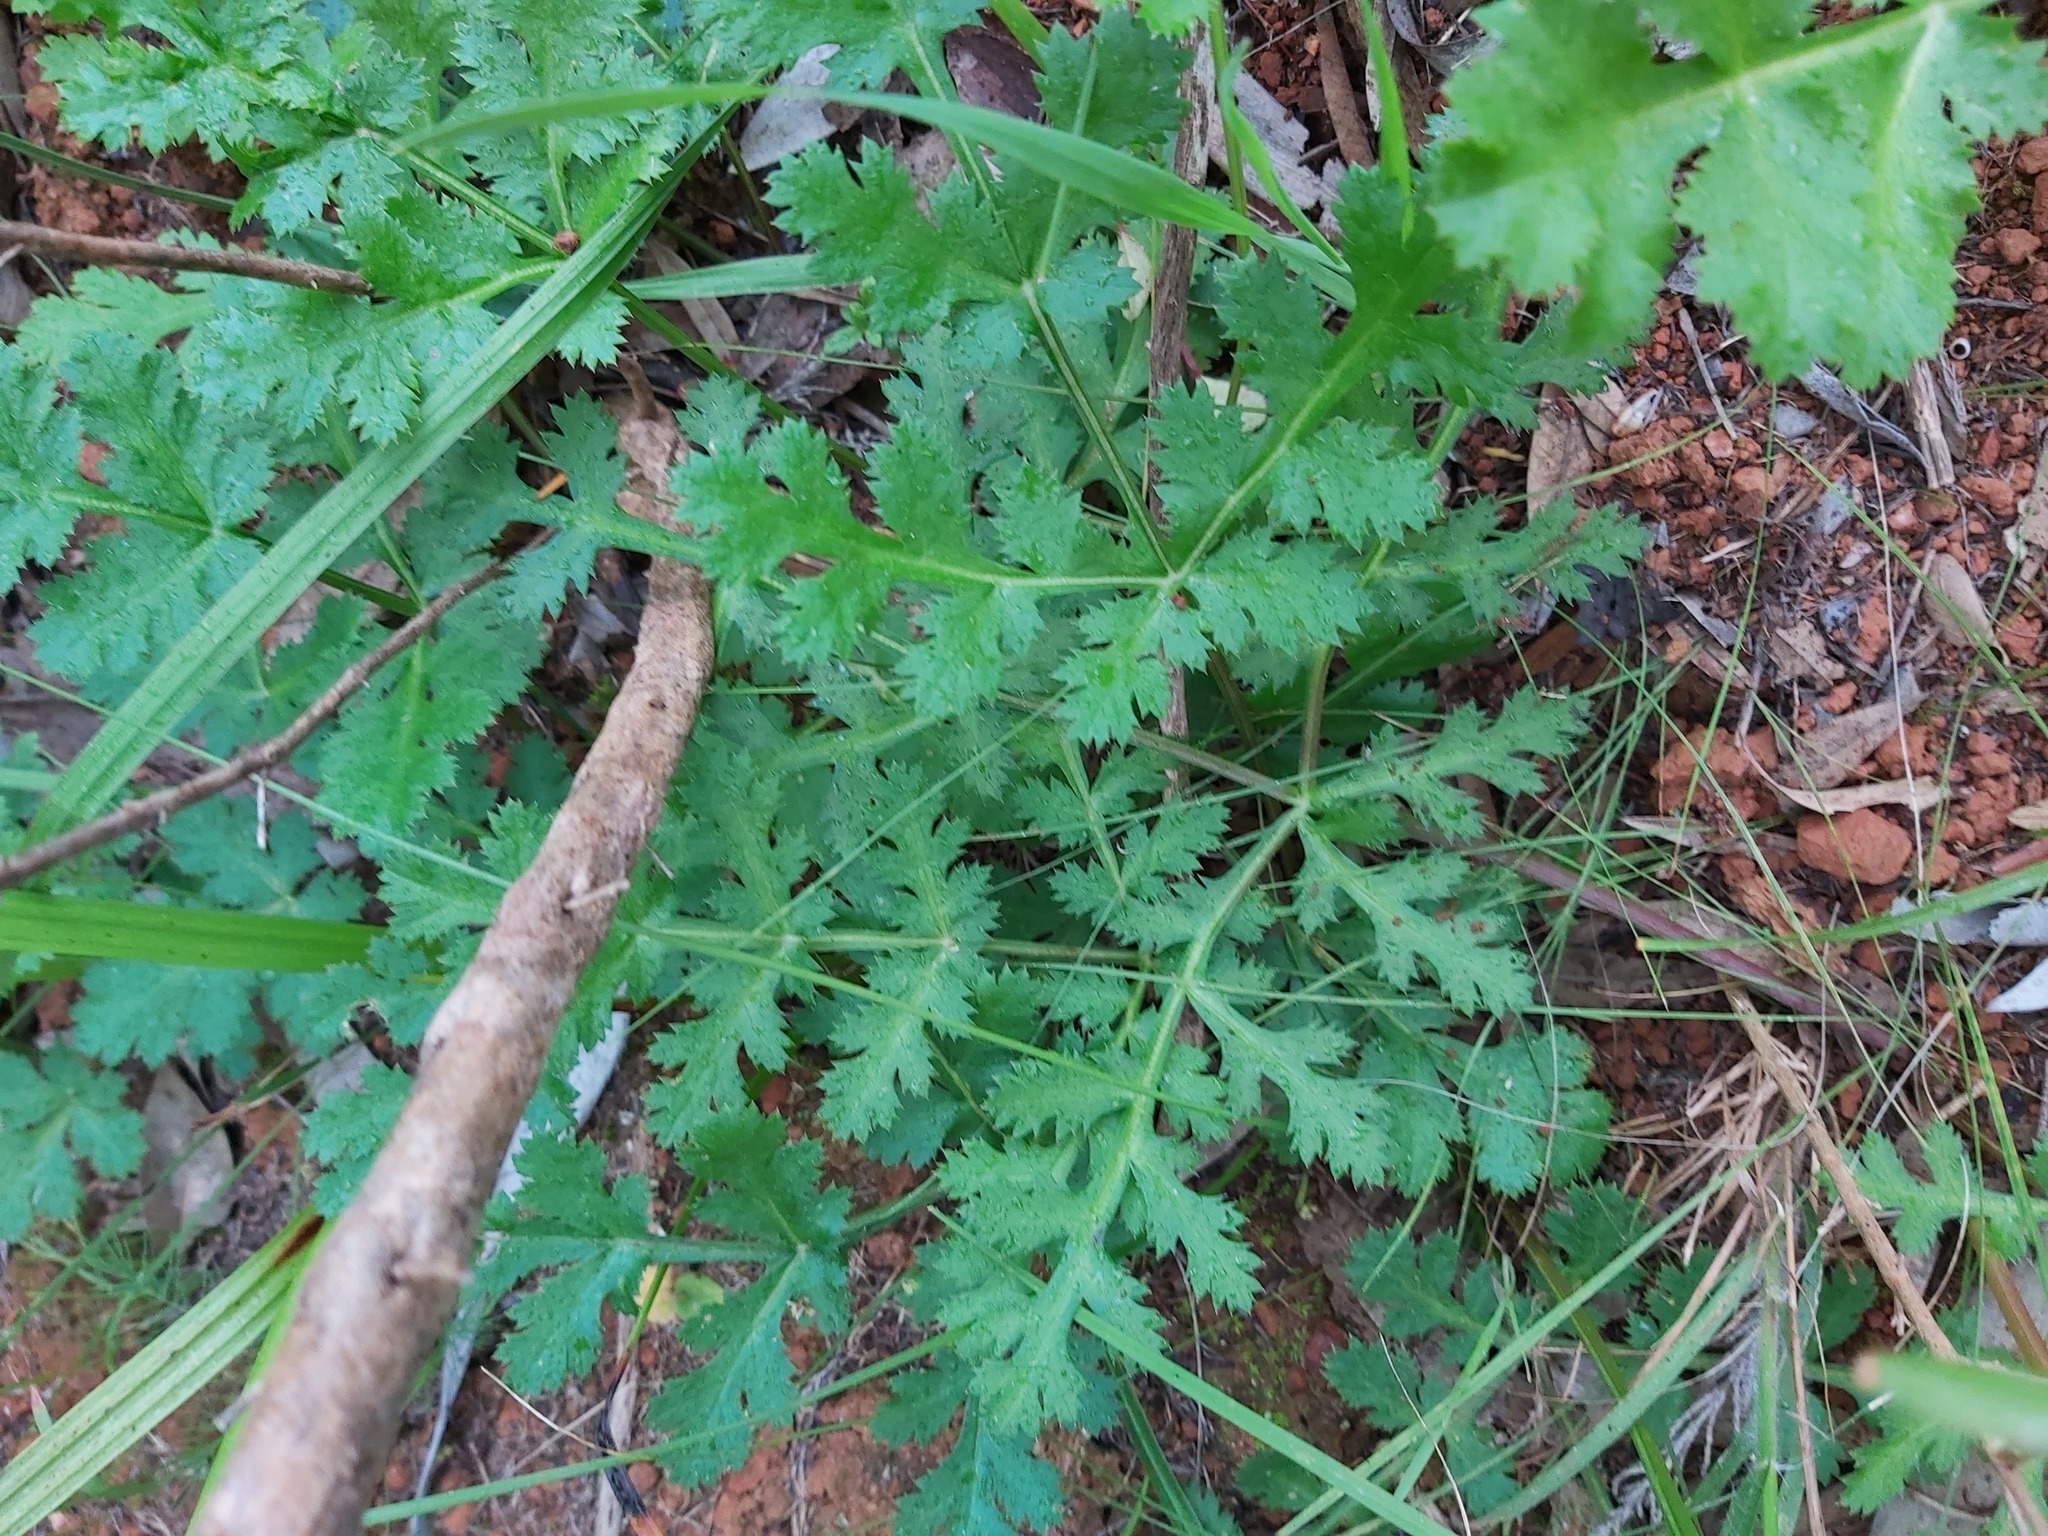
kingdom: Plantae
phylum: Tracheophyta
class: Magnoliopsida
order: Apiales
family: Apiaceae
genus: Annesorhiza
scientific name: Annesorhiza nuda
